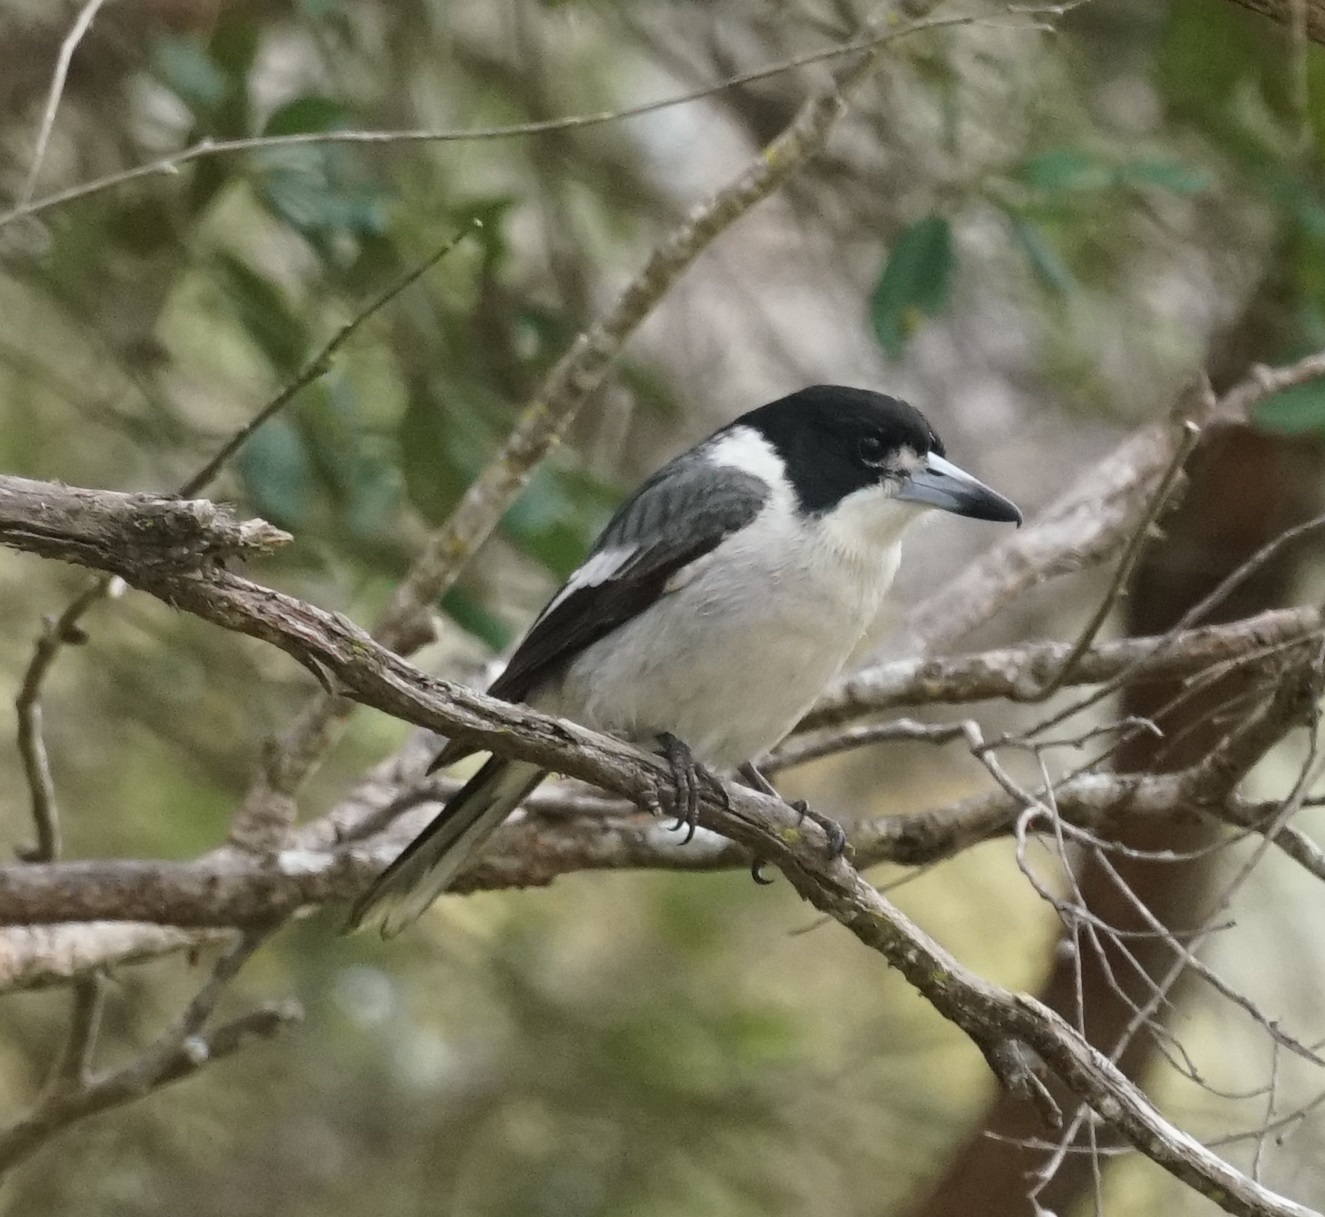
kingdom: Animalia
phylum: Chordata
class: Aves
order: Passeriformes
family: Cracticidae
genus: Cracticus
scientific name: Cracticus torquatus
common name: Grey butcherbird
